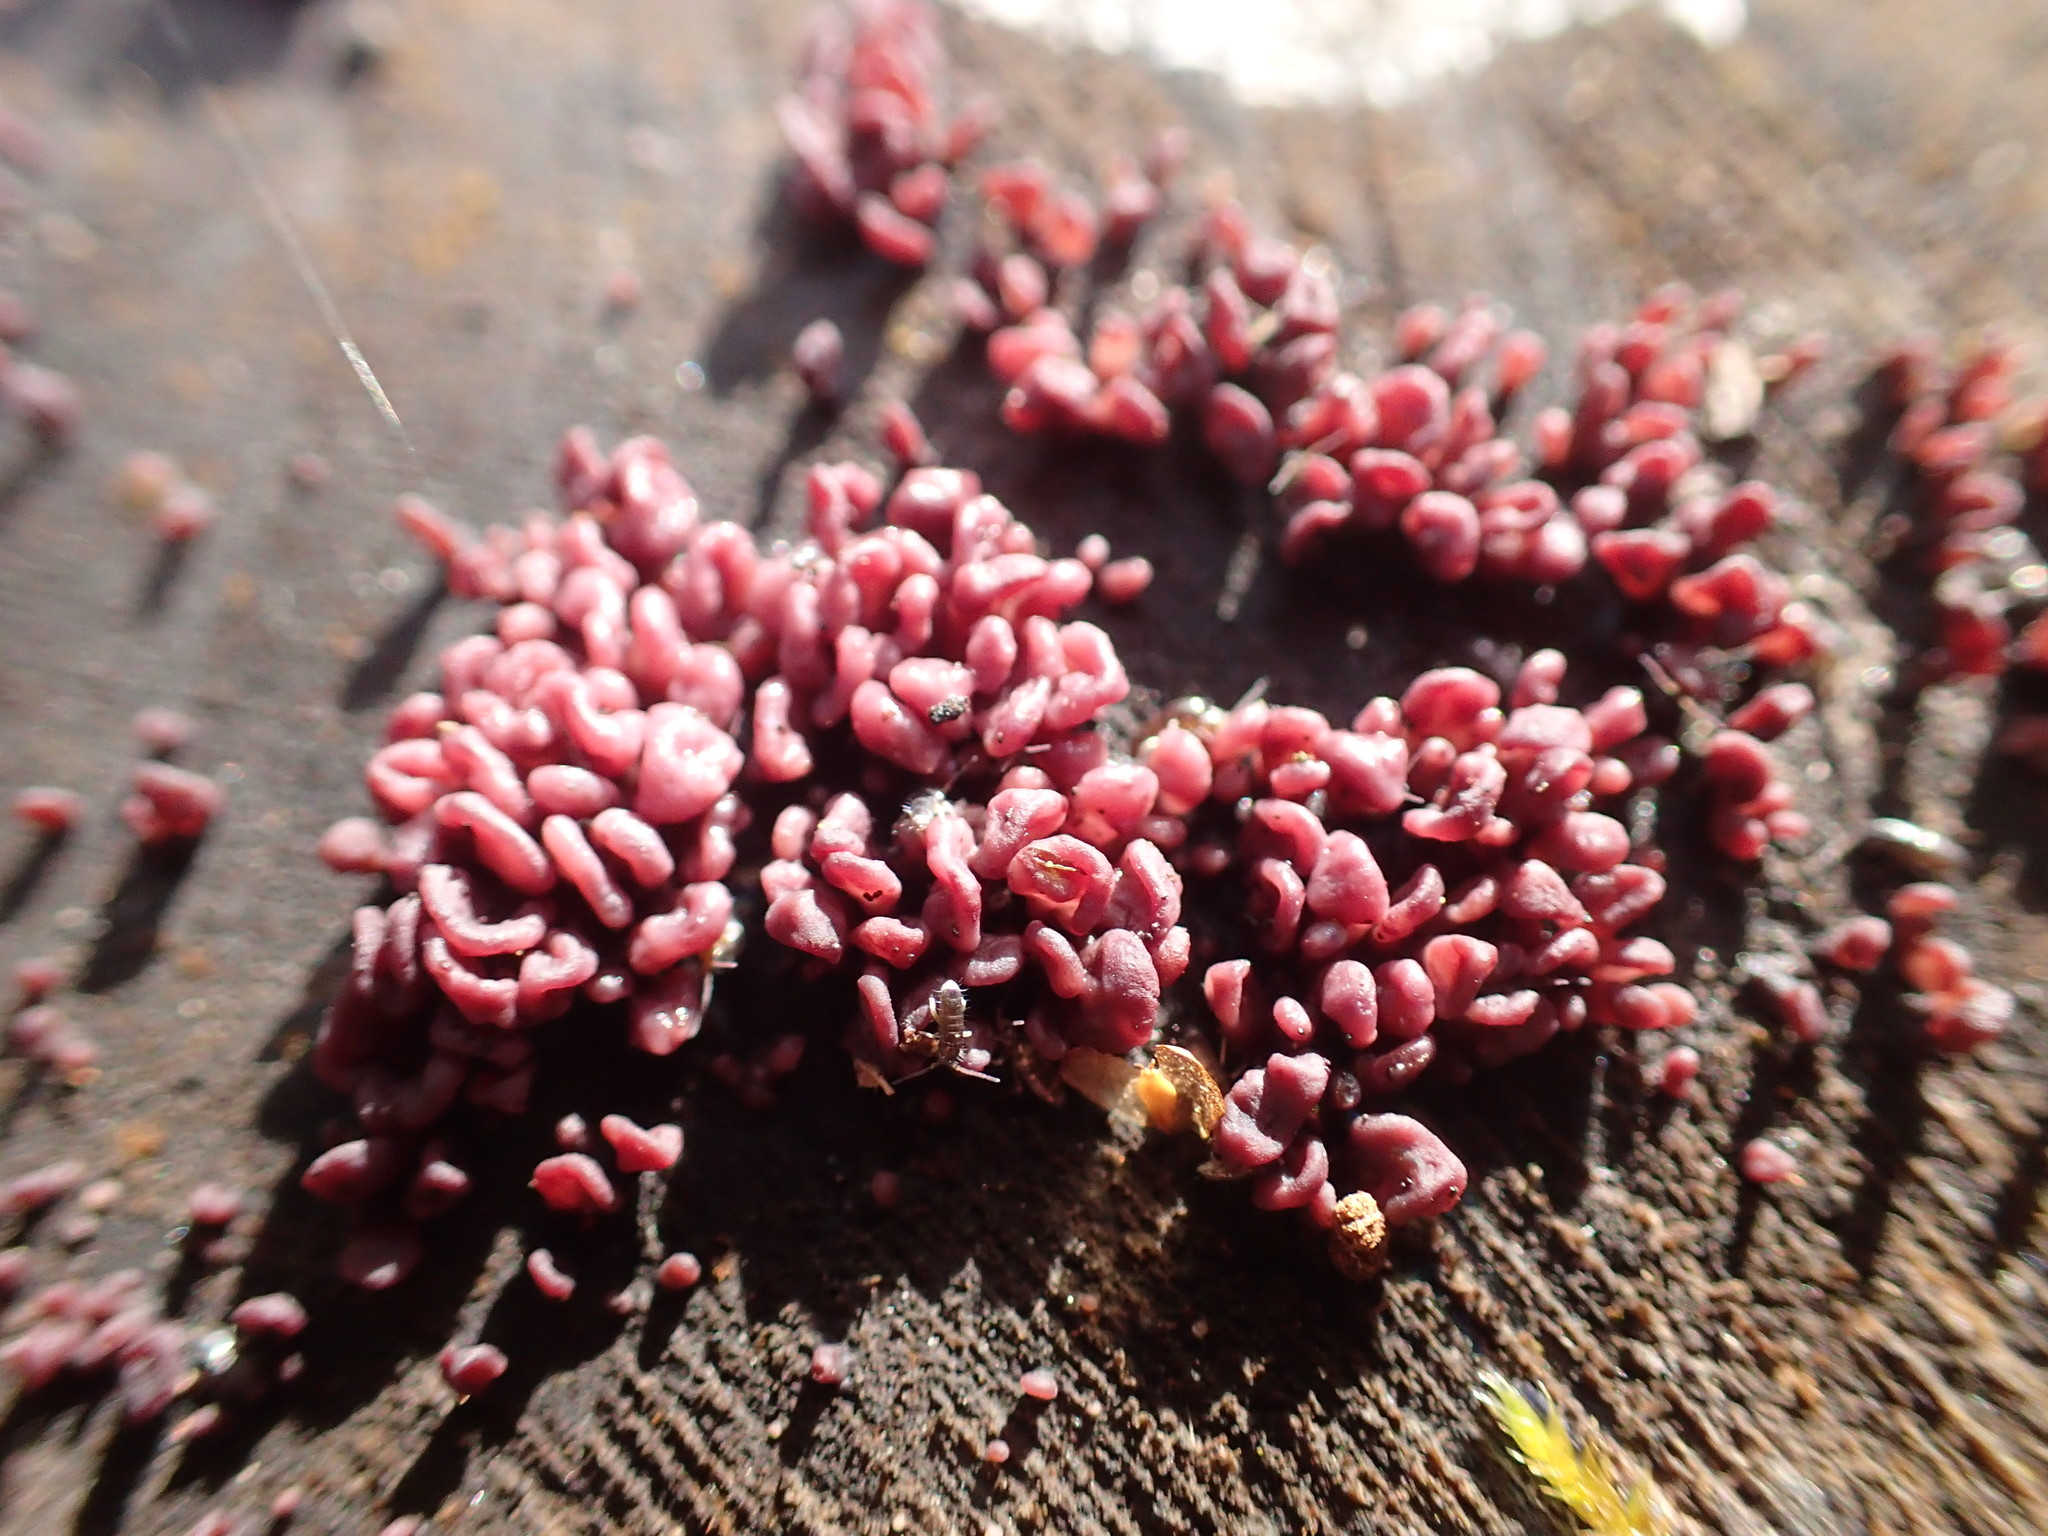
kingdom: Fungi
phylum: Ascomycota
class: Leotiomycetes
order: Helotiales
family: Gelatinodiscaceae
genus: Ascocoryne
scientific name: Ascocoryne sarcoides
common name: Purple jellydisc
